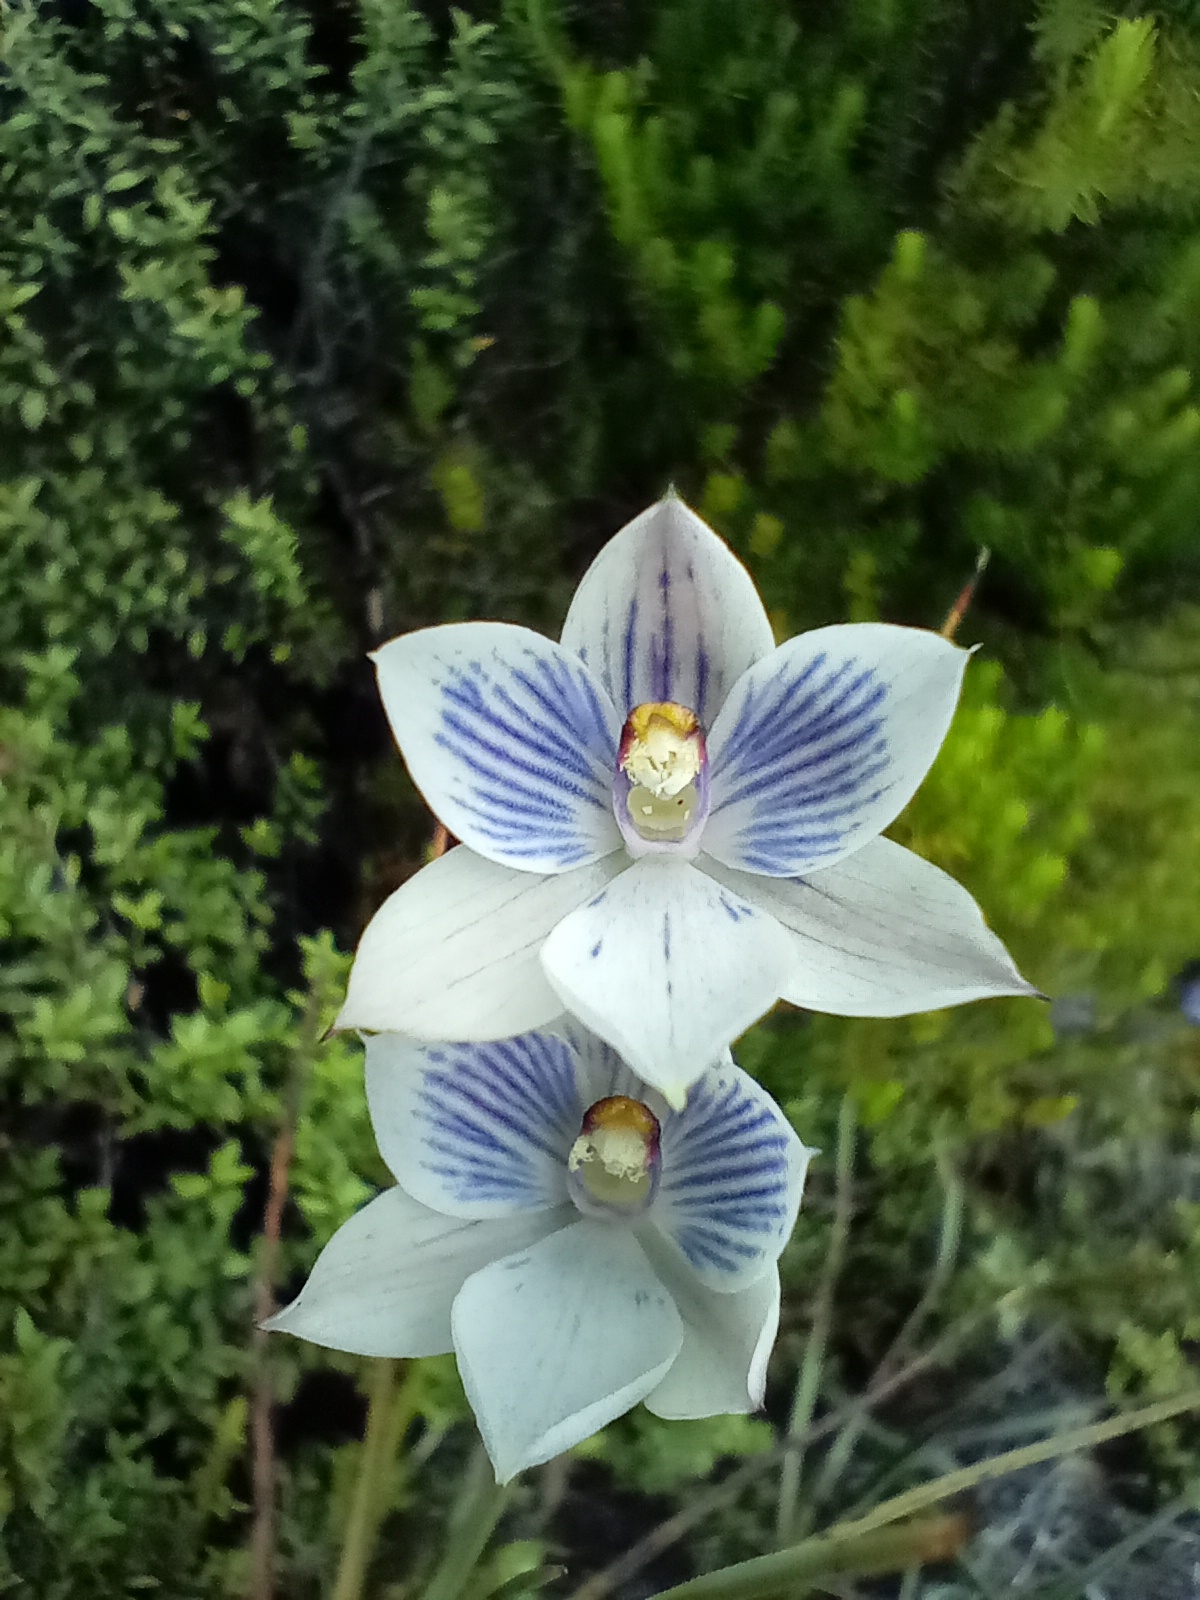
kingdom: Plantae
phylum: Tracheophyta
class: Liliopsida
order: Asparagales
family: Orchidaceae
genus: Thelymitra
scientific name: Thelymitra pulchella
